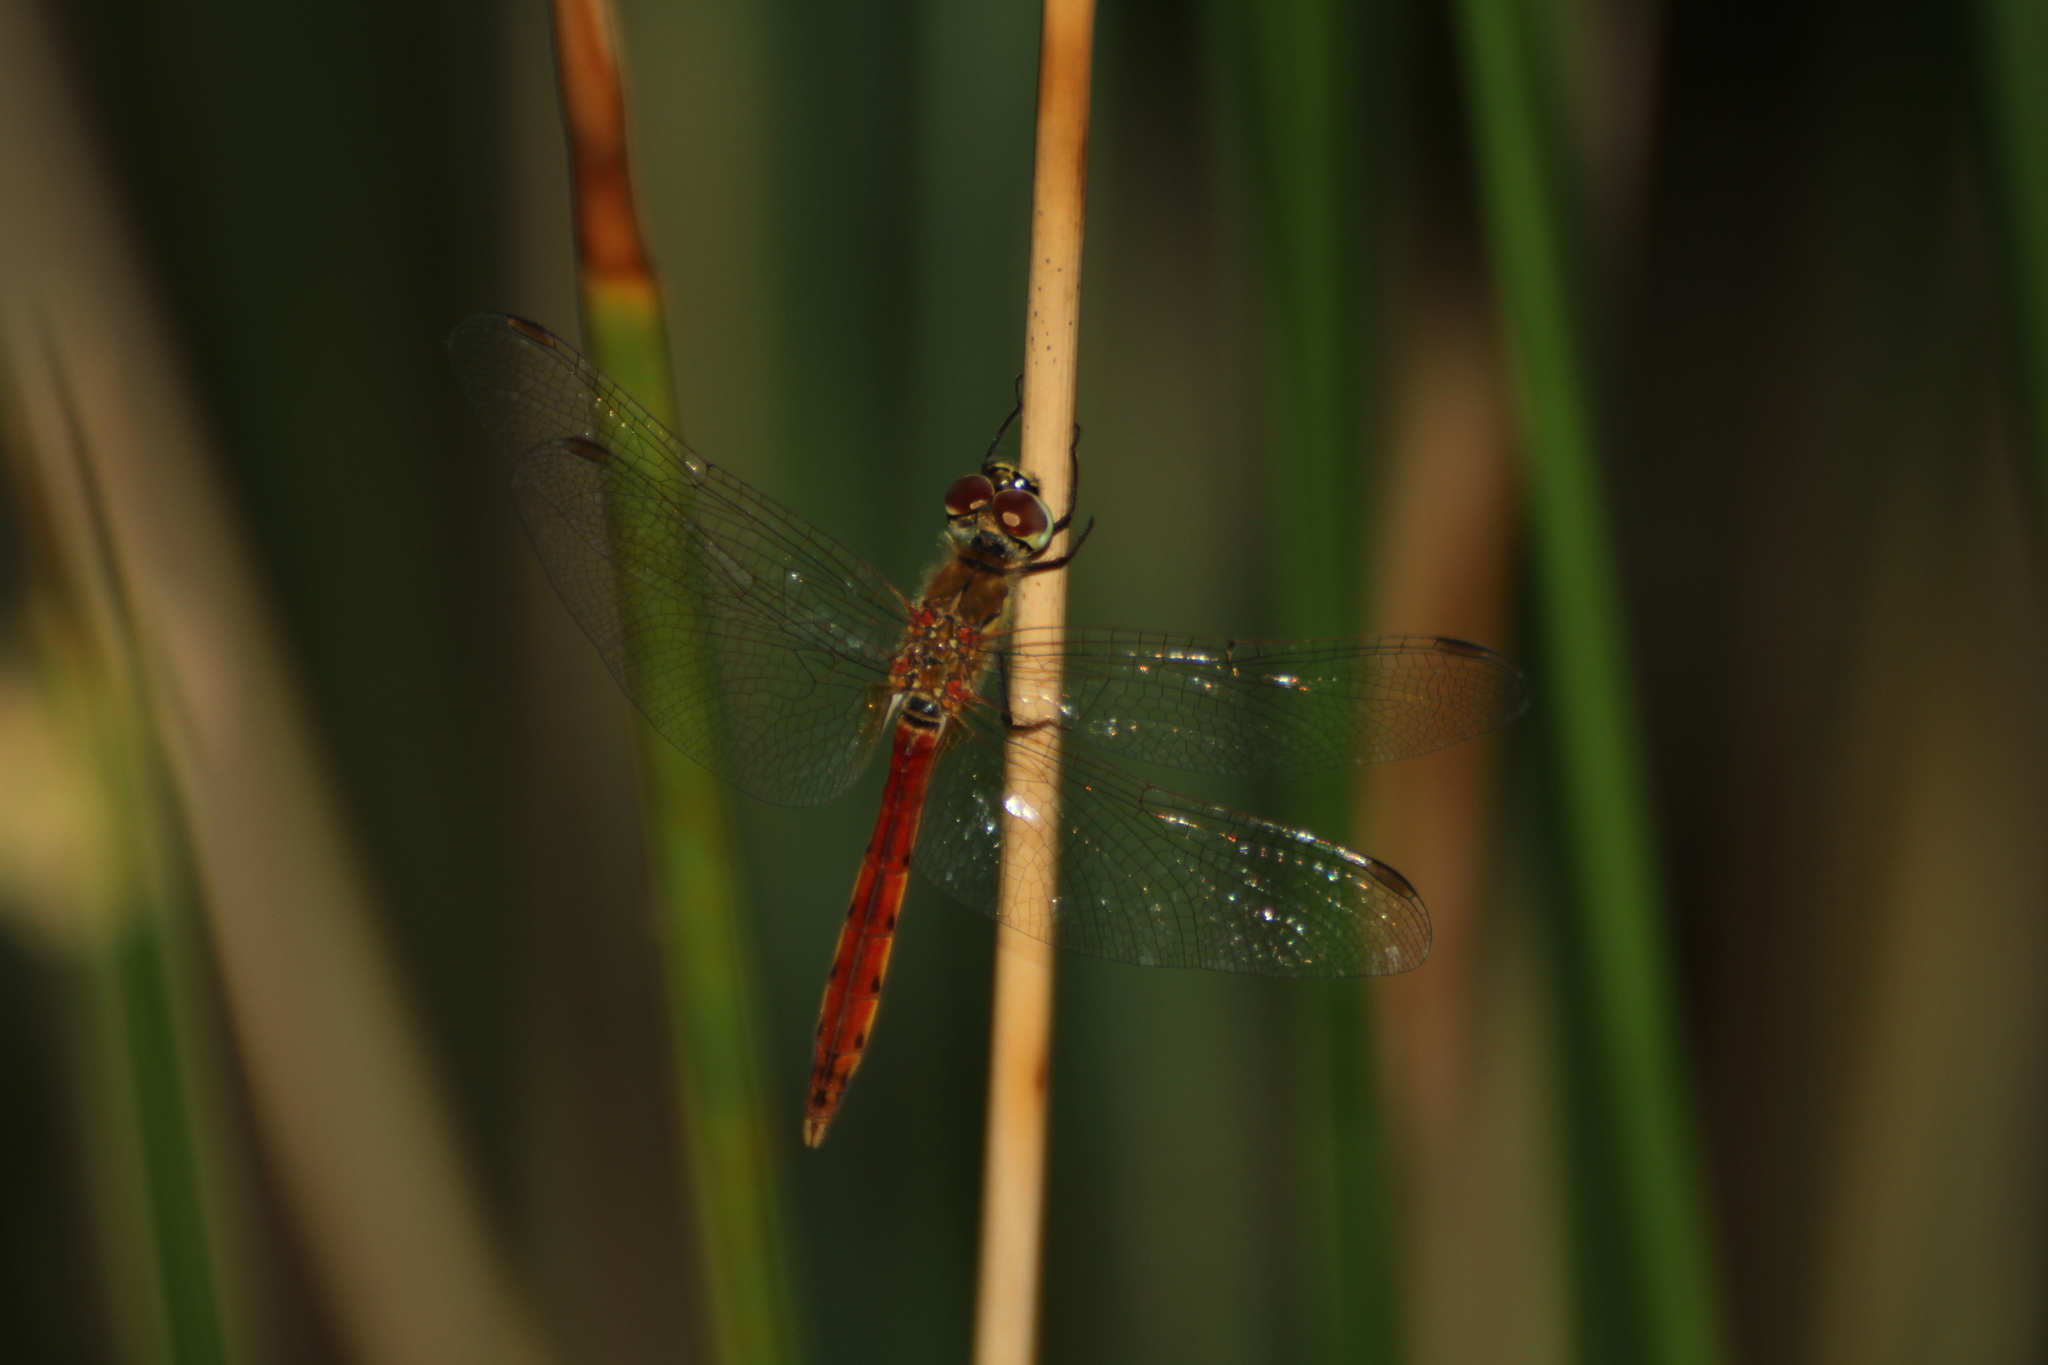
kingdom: Animalia
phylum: Arthropoda
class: Insecta
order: Odonata
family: Libellulidae
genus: Sympetrum
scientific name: Sympetrum depressiusculum
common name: Spotted darter
